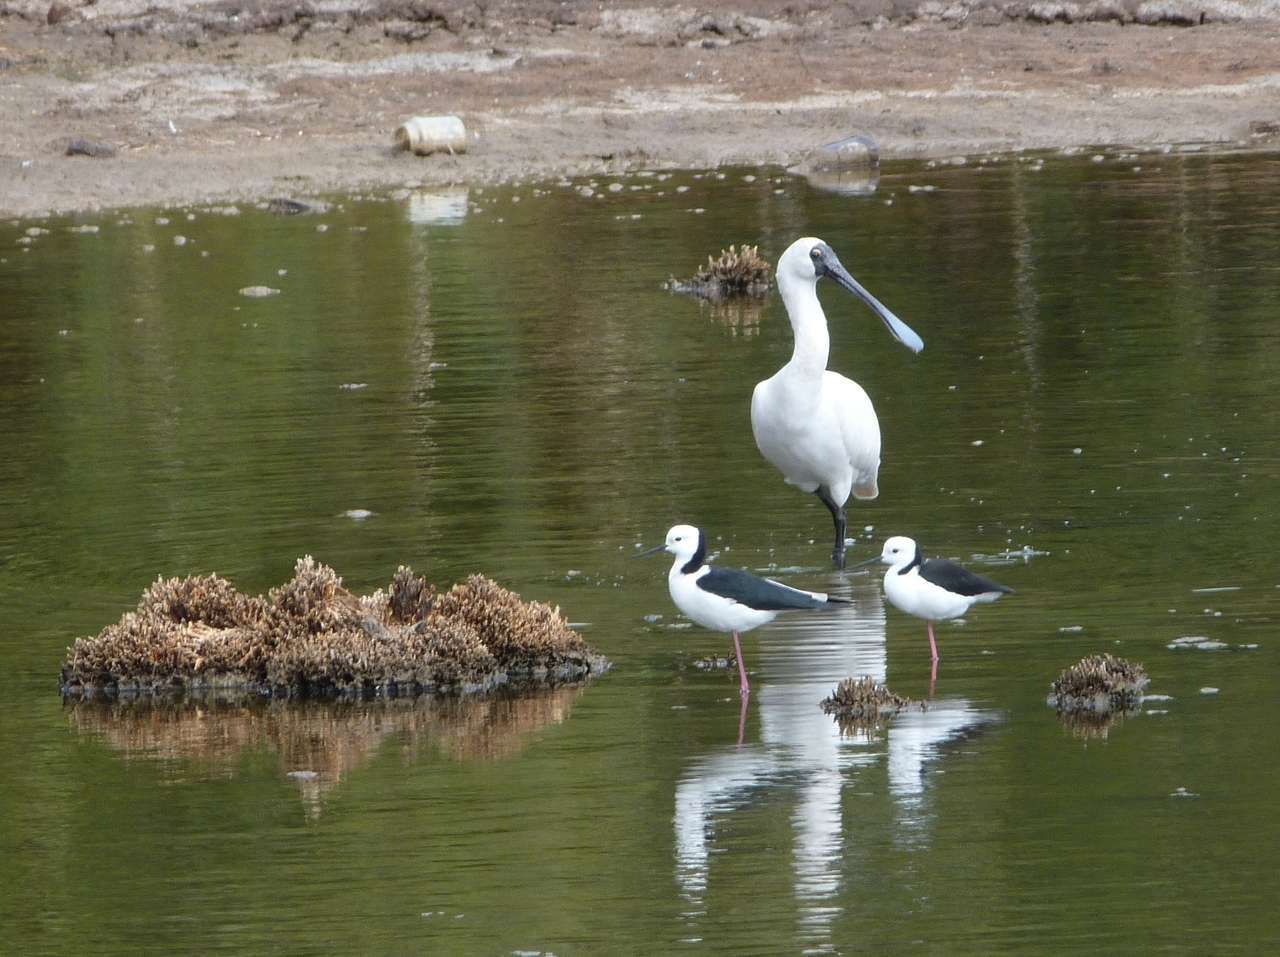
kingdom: Animalia
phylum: Chordata
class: Aves
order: Charadriiformes
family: Recurvirostridae
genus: Himantopus
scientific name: Himantopus leucocephalus
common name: White-headed stilt
